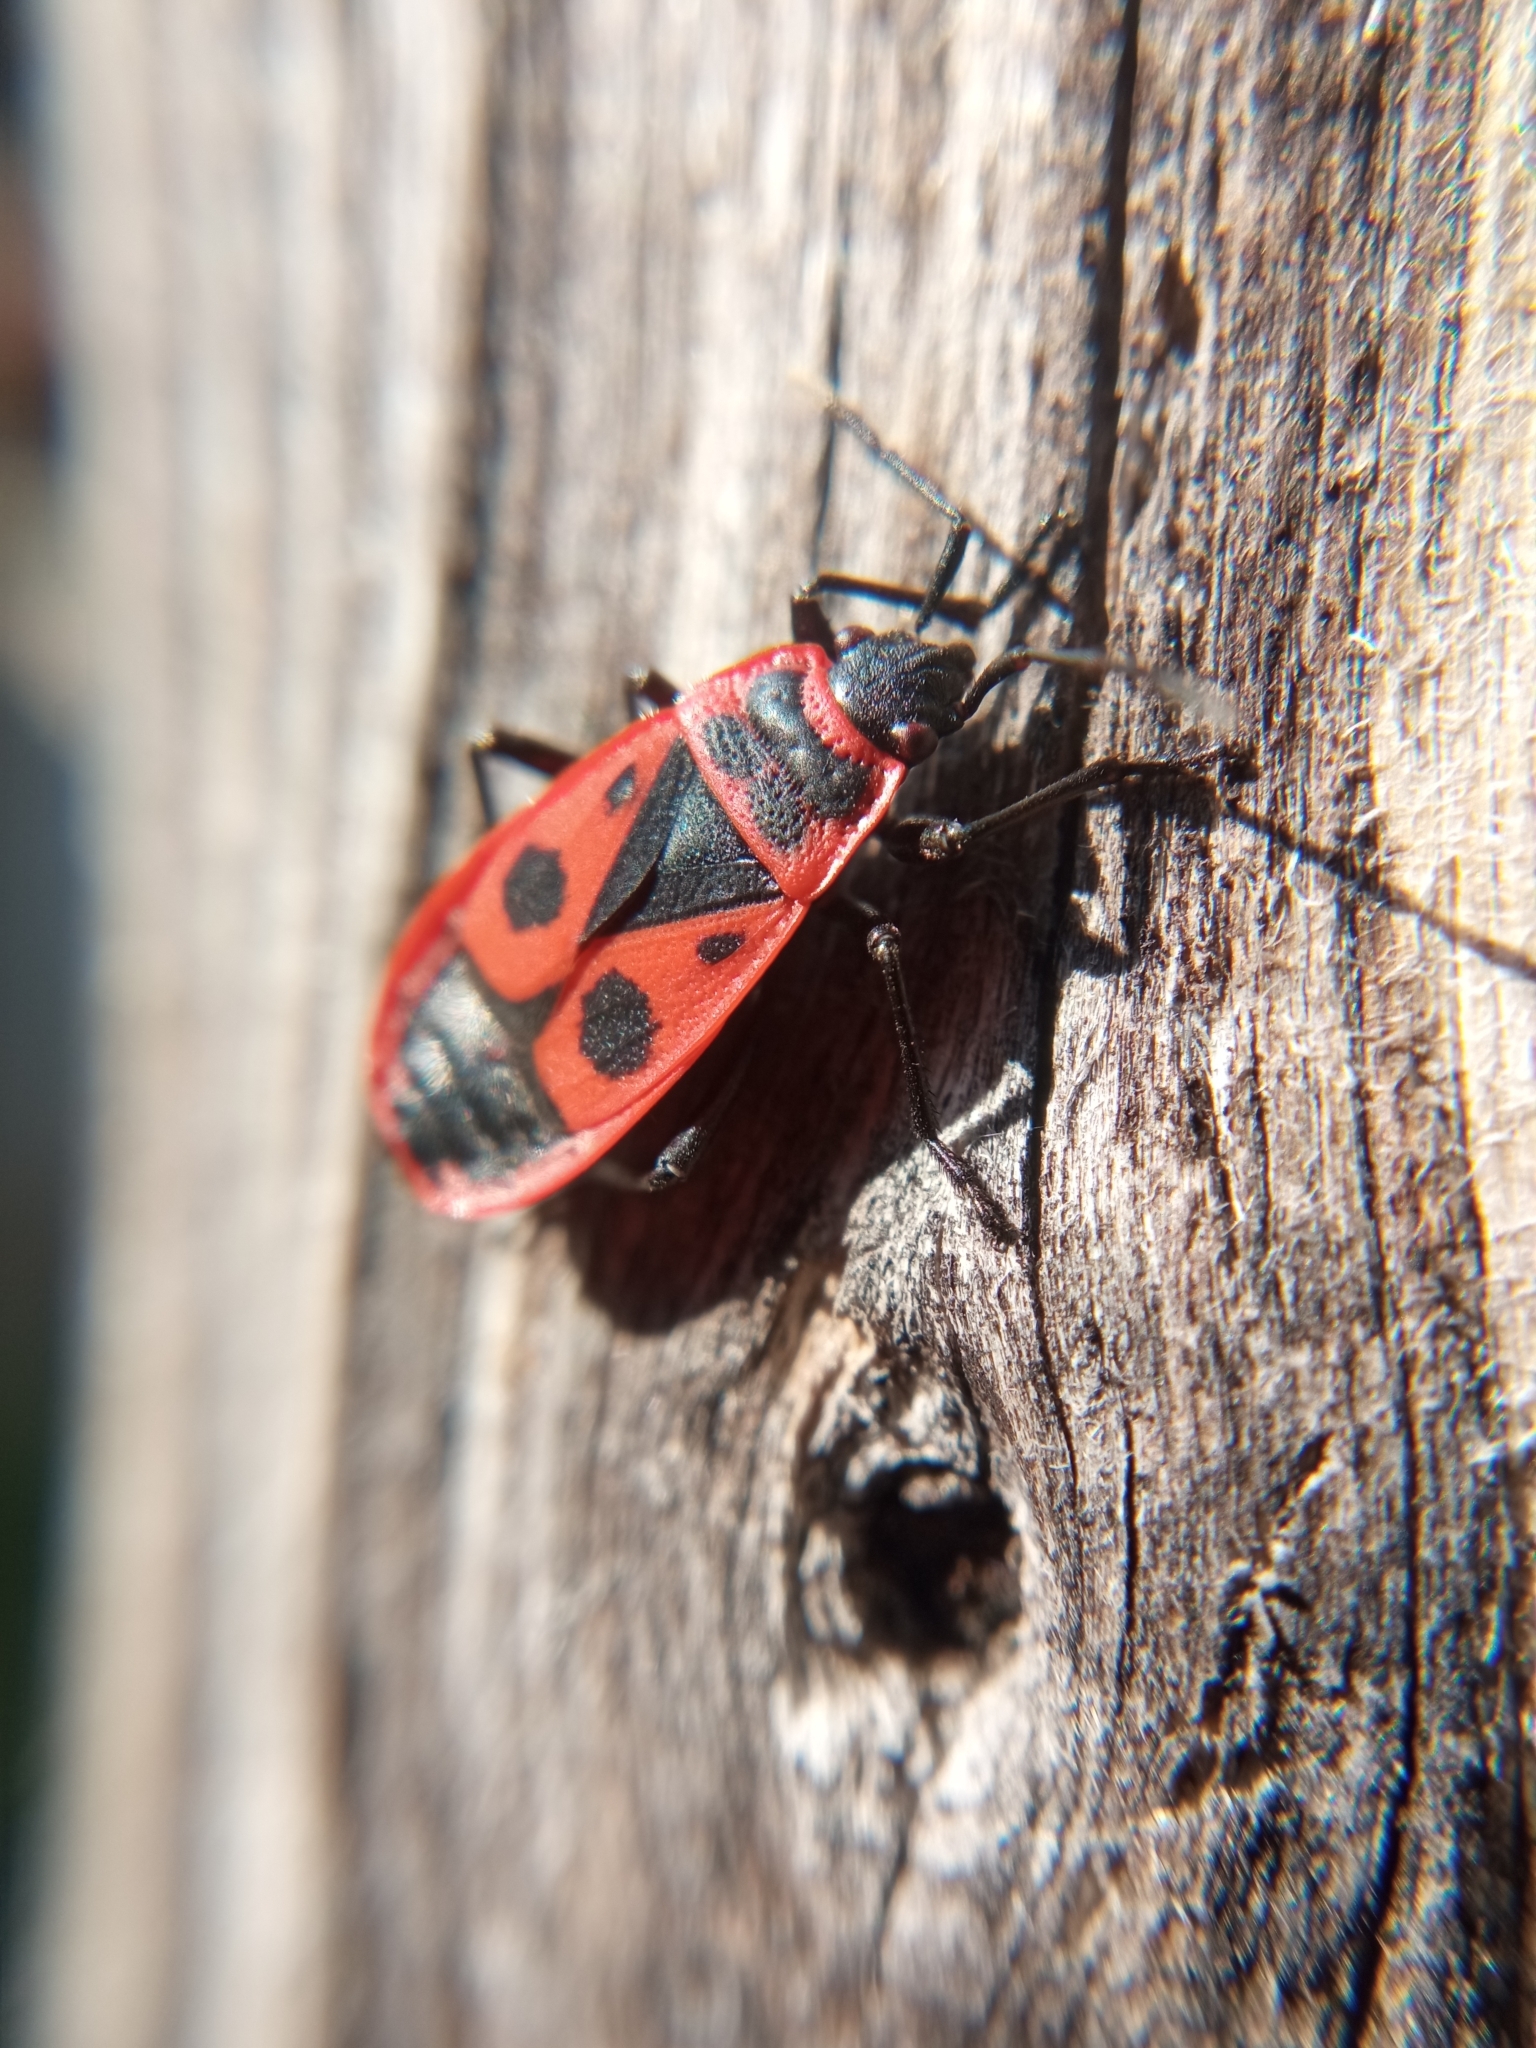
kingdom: Animalia
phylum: Arthropoda
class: Insecta
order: Hemiptera
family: Pyrrhocoridae
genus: Pyrrhocoris
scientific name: Pyrrhocoris apterus
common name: Firebug
